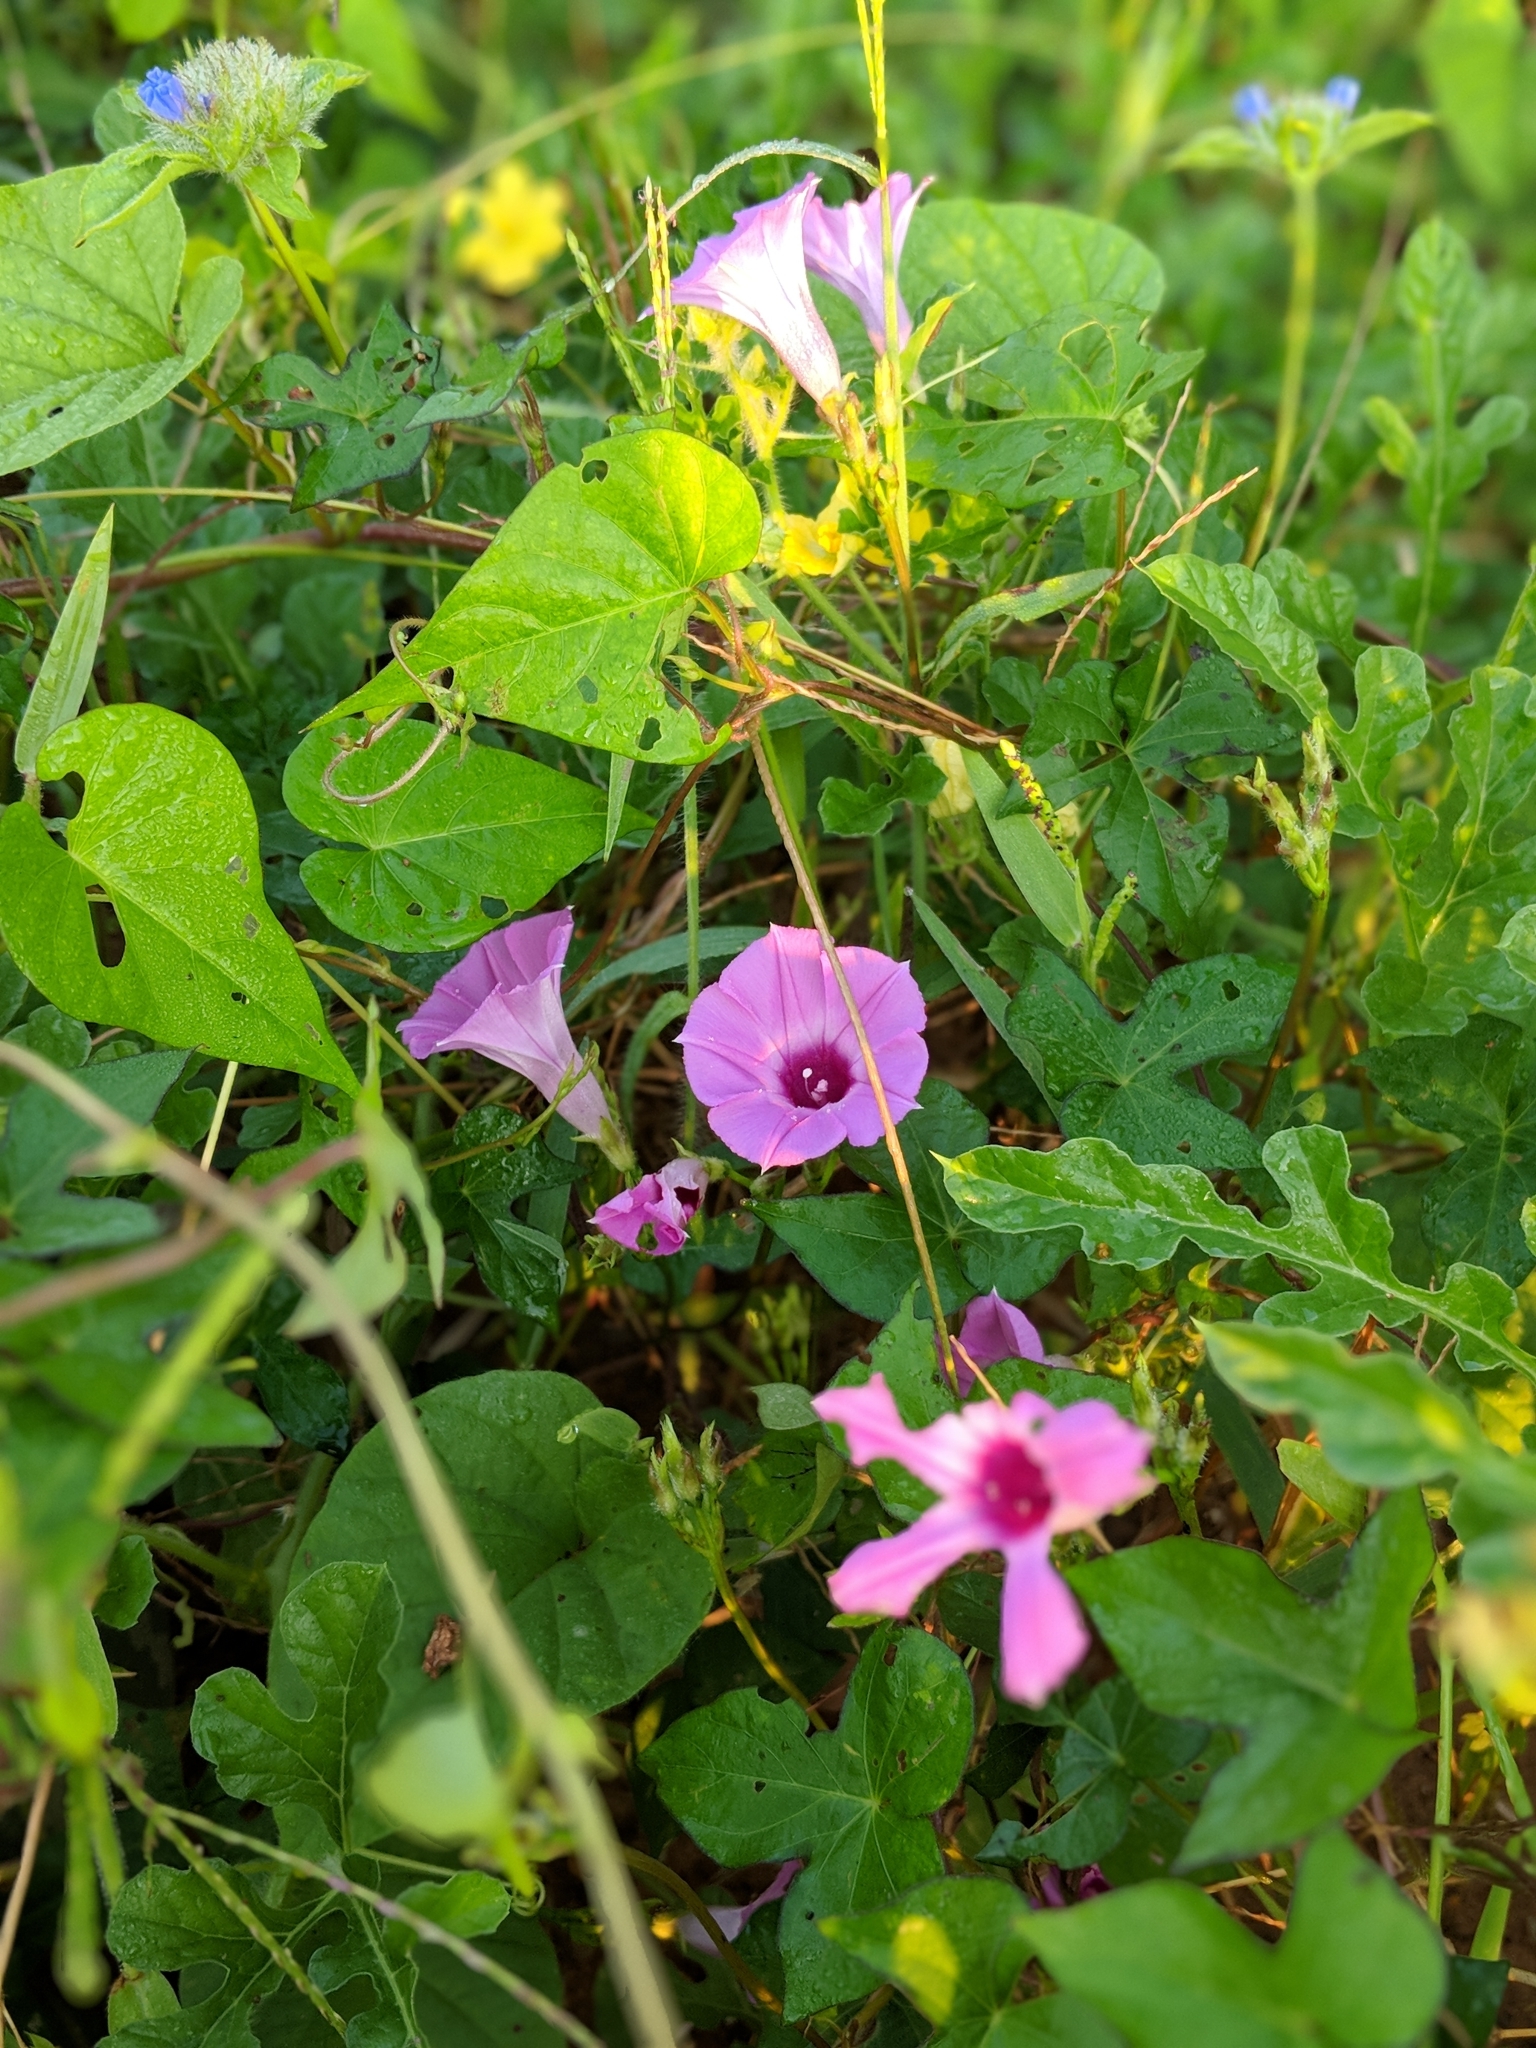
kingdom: Plantae
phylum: Tracheophyta
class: Magnoliopsida
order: Solanales
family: Convolvulaceae
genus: Ipomoea
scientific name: Ipomoea cordatotriloba
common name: Cotton morning glory
